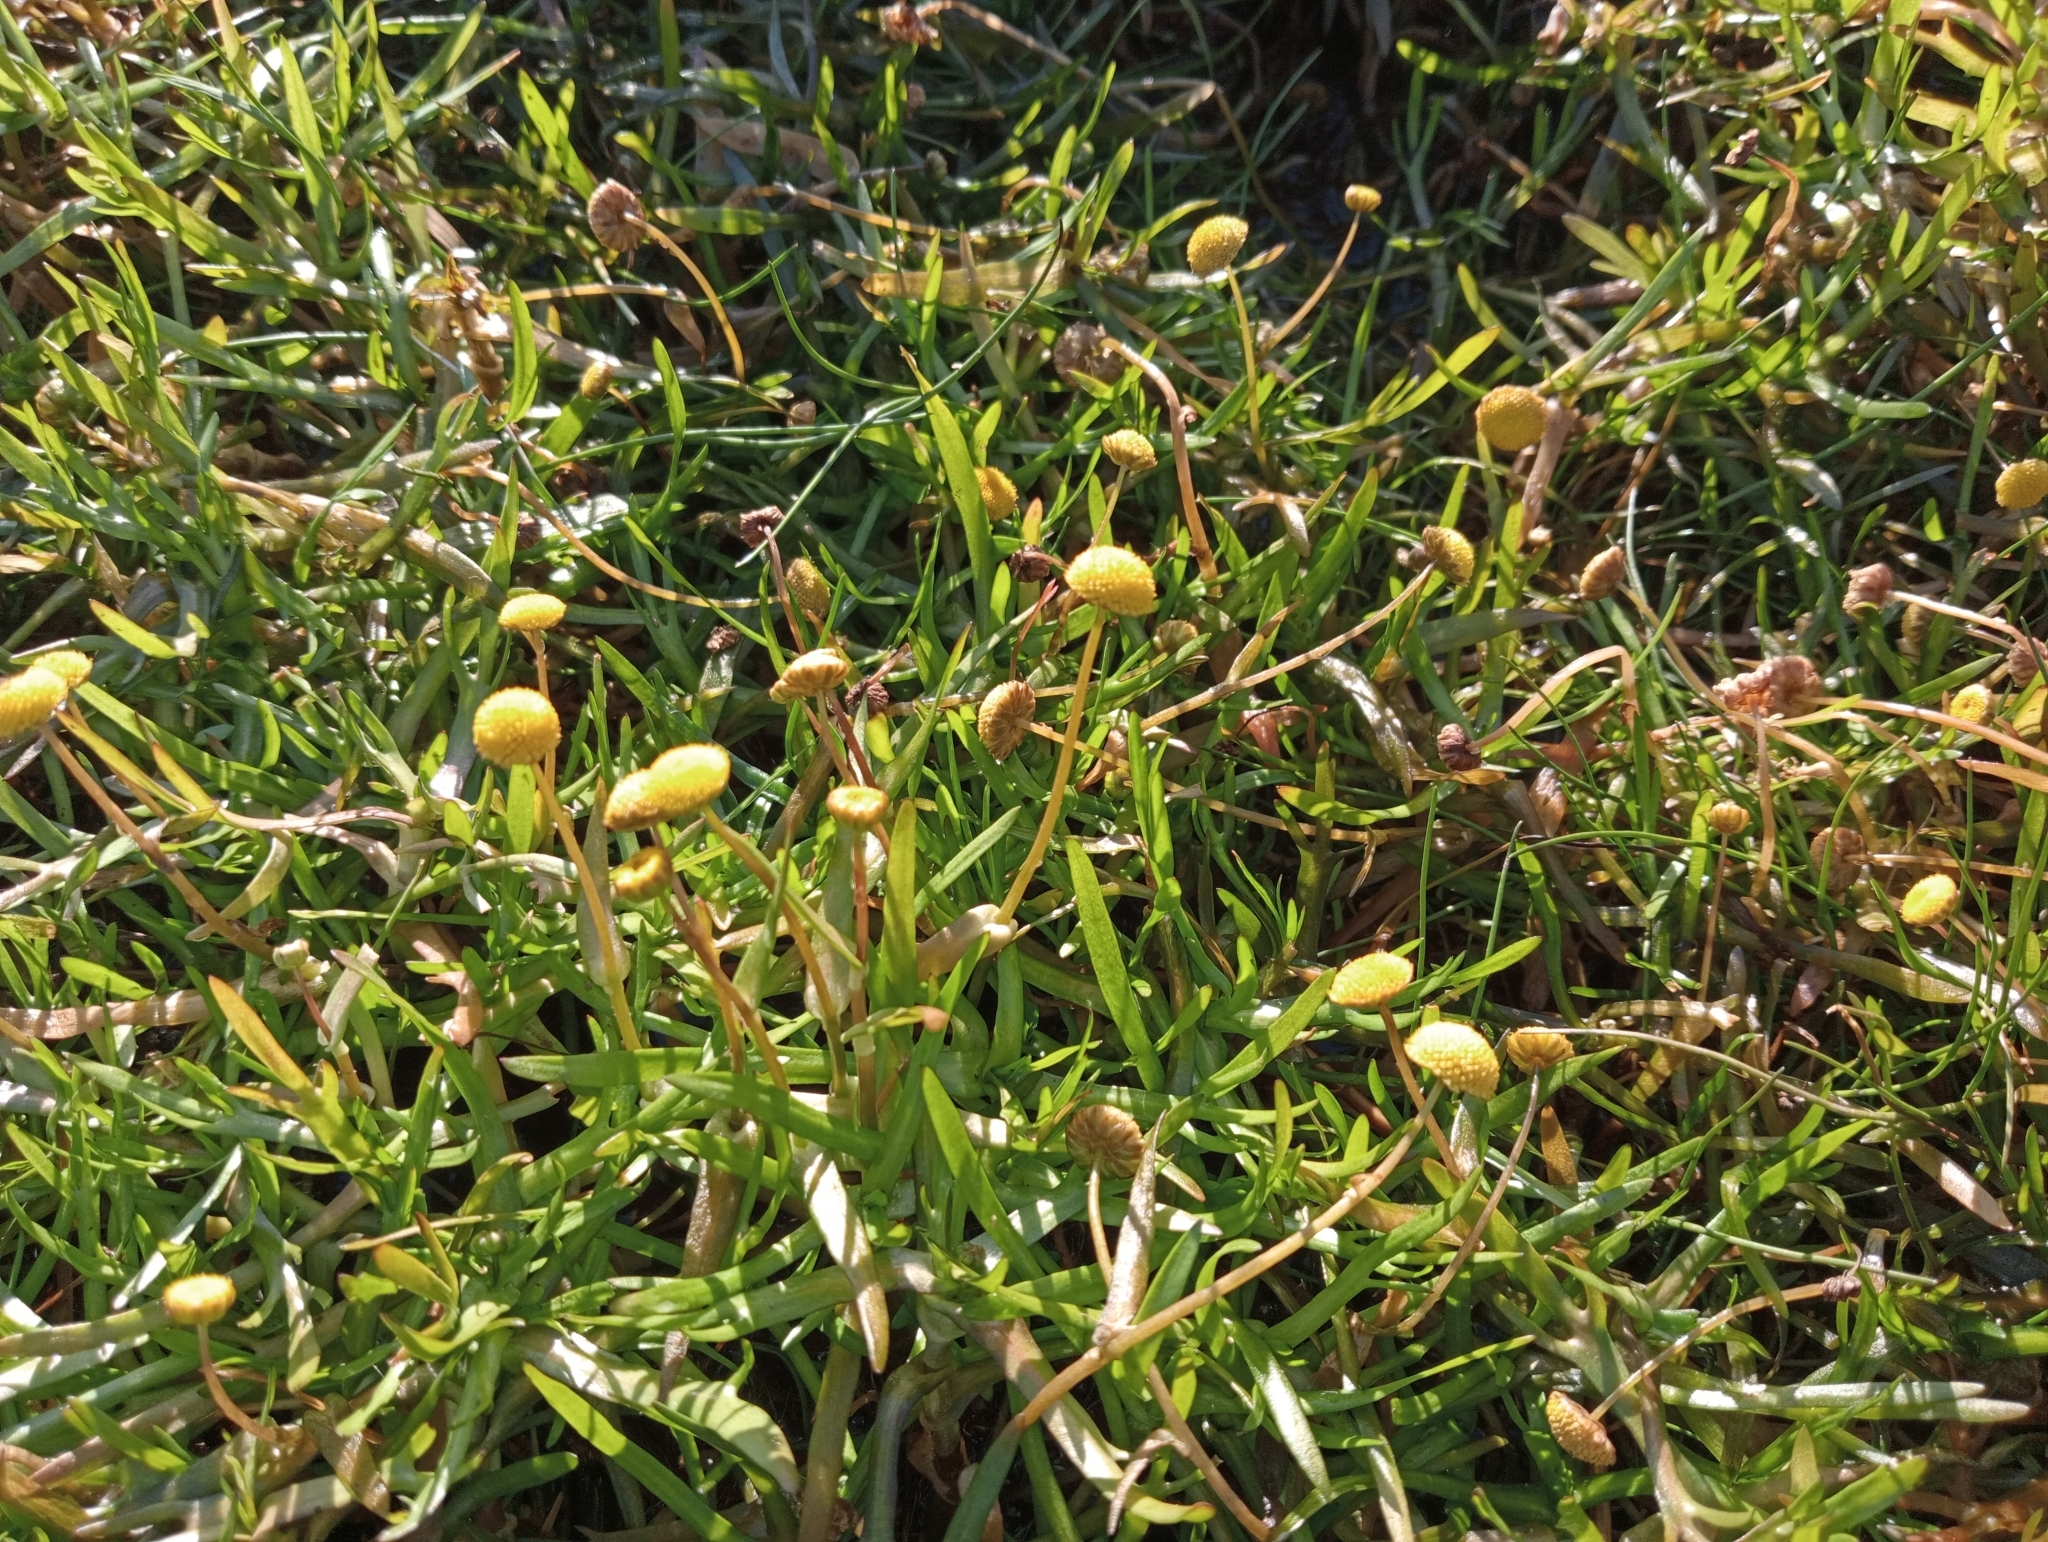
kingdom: Plantae
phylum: Tracheophyta
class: Magnoliopsida
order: Asterales
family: Asteraceae
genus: Cotula
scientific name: Cotula coronopifolia
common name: Buttonweed
